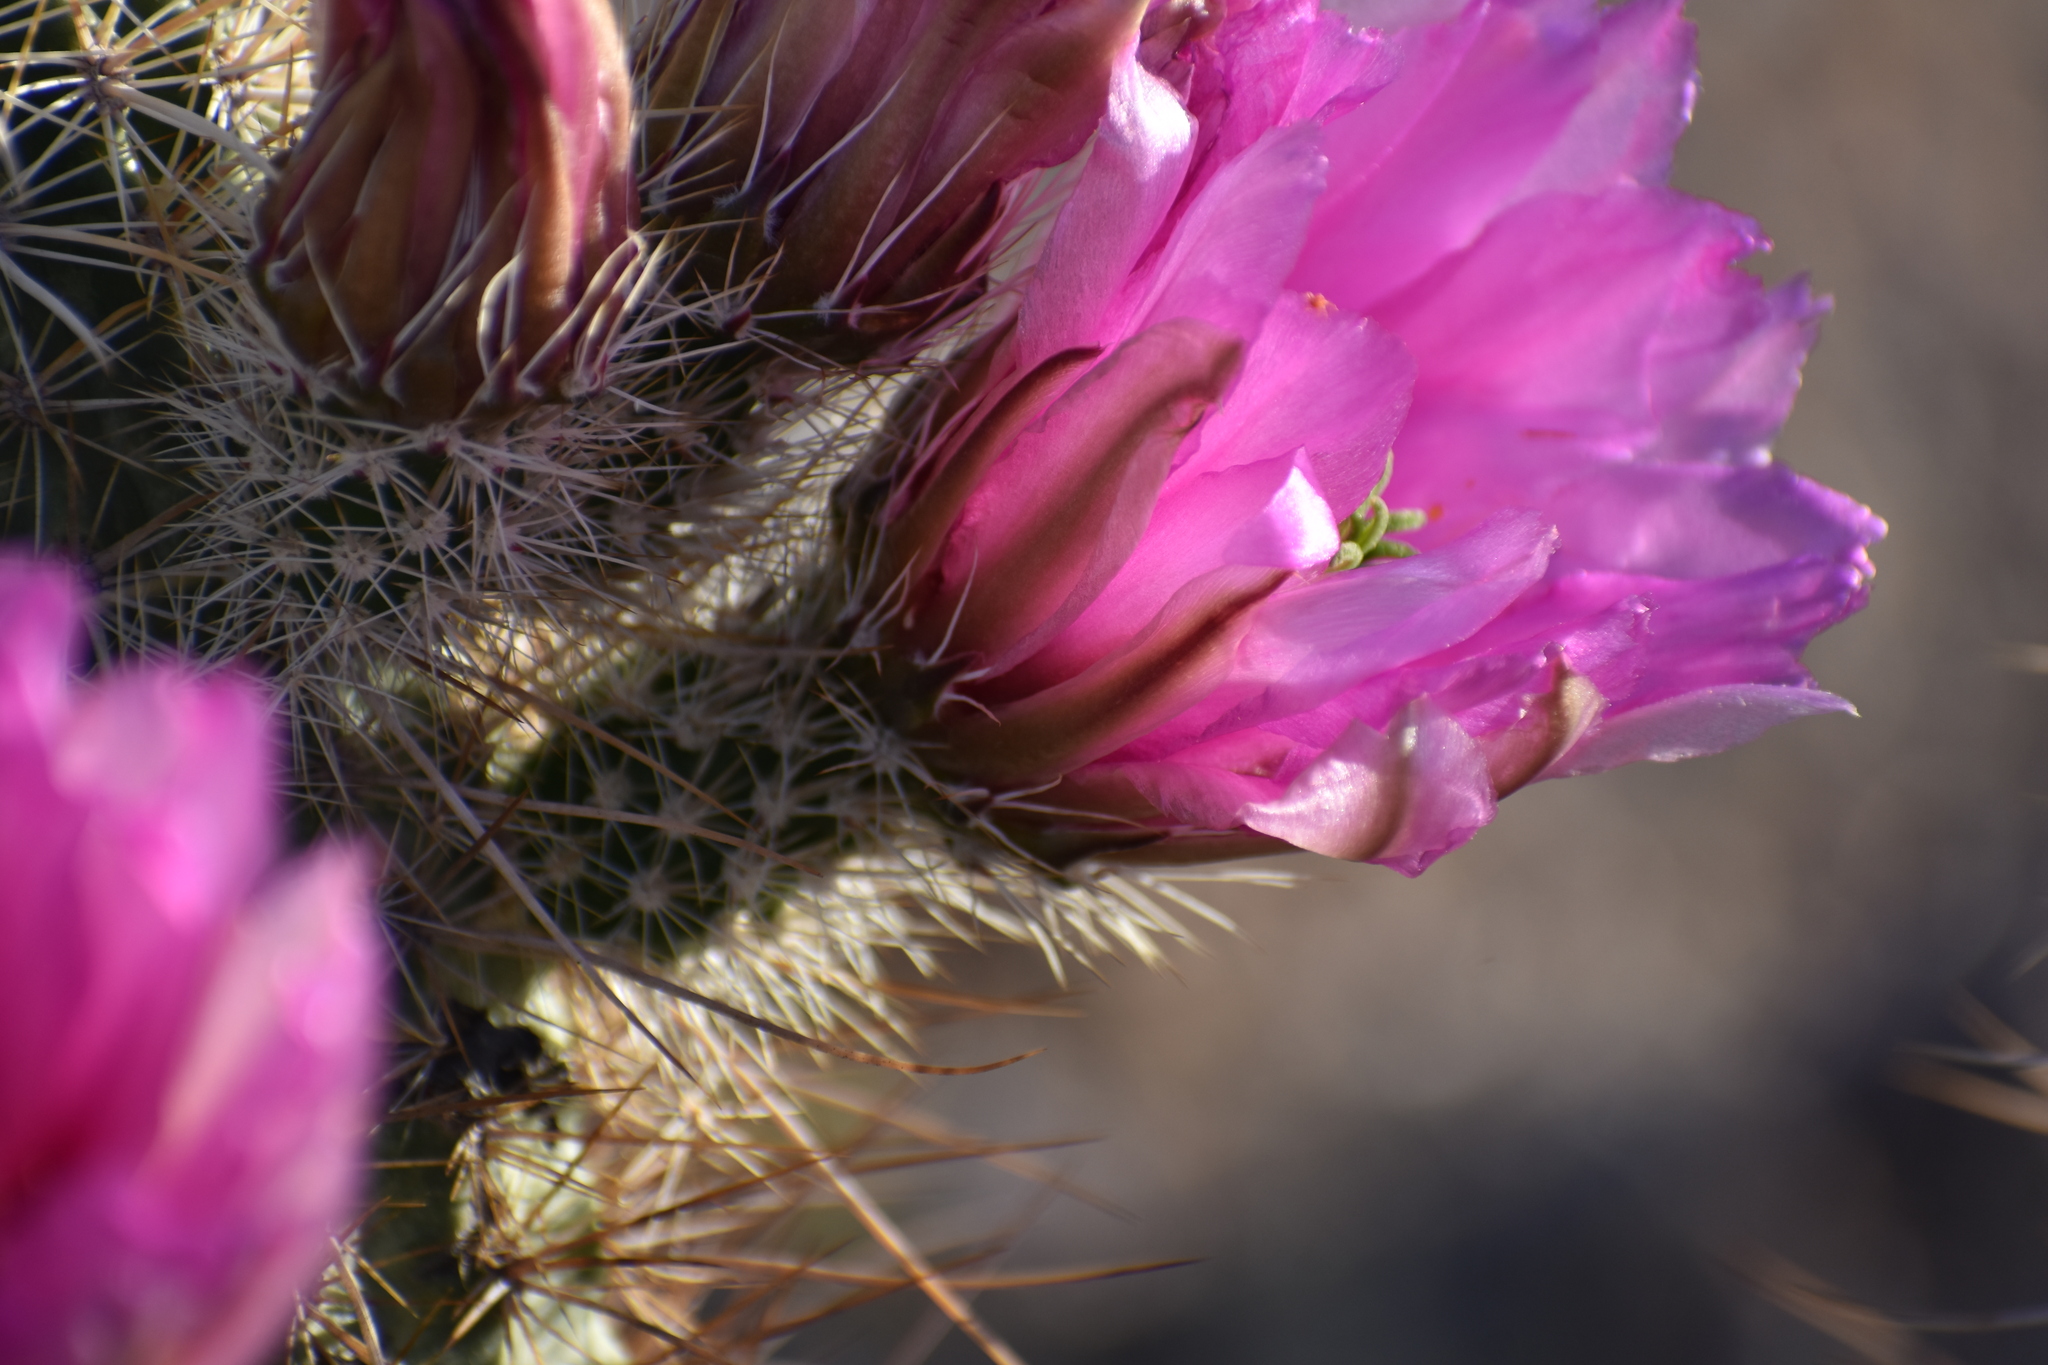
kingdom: Plantae
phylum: Tracheophyta
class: Magnoliopsida
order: Caryophyllales
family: Cactaceae
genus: Echinocereus
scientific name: Echinocereus engelmannii
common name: Engelmann's hedgehog cactus
